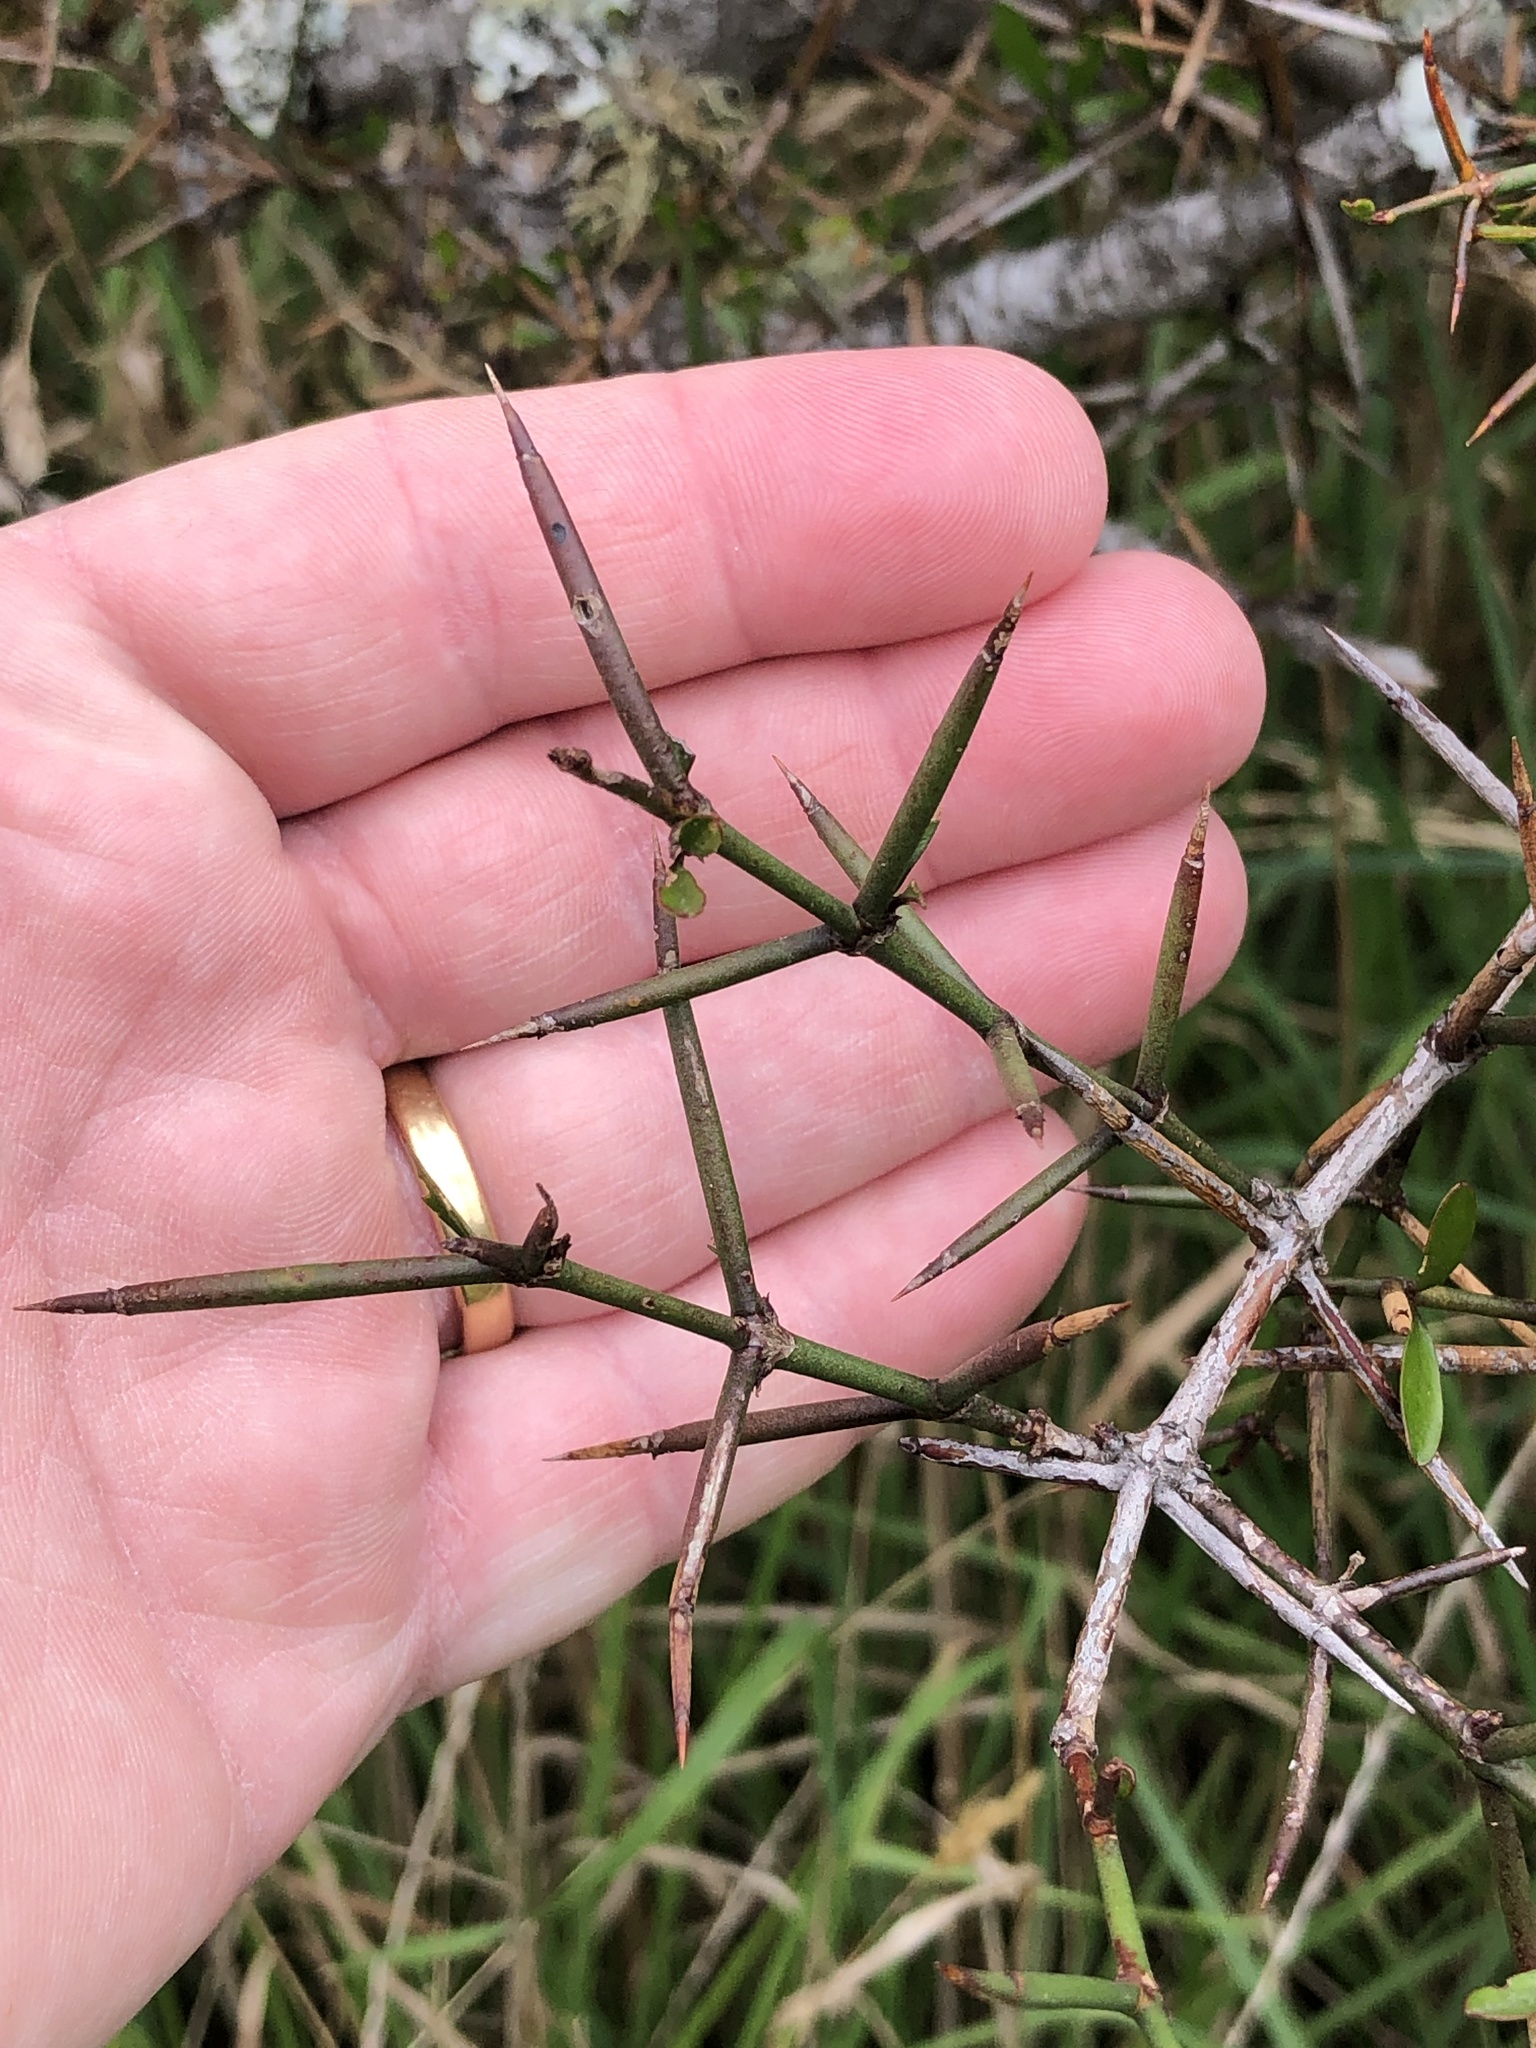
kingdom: Plantae
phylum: Tracheophyta
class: Magnoliopsida
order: Rosales
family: Rhamnaceae
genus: Discaria
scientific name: Discaria toumatou
